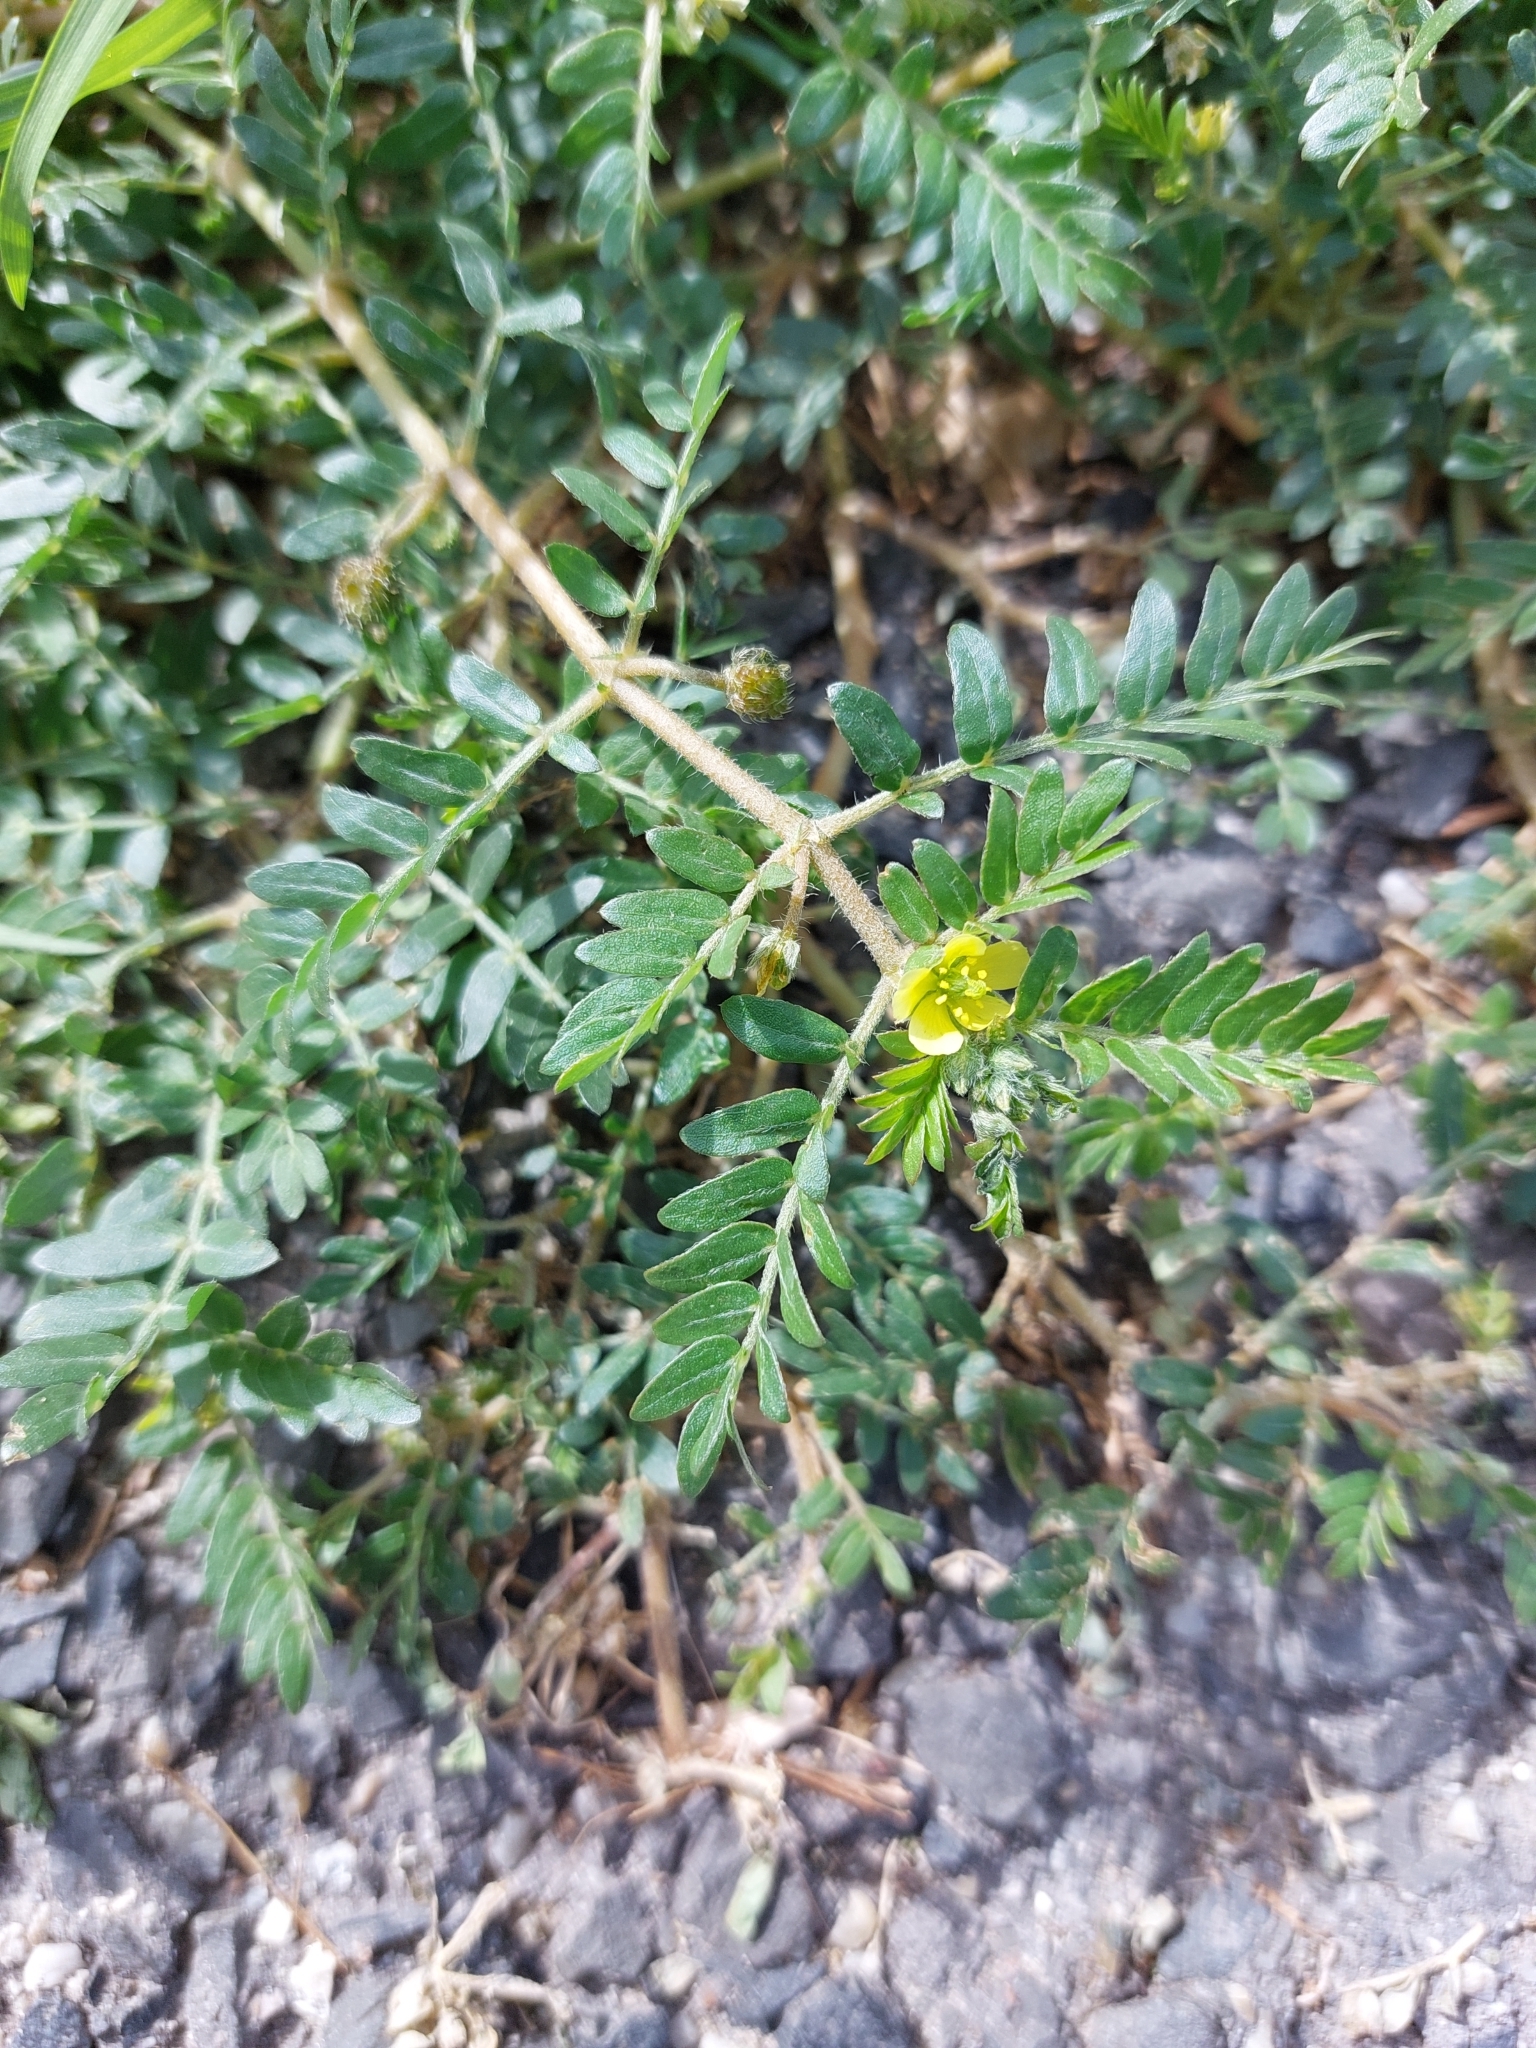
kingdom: Plantae
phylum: Tracheophyta
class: Magnoliopsida
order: Zygophyllales
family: Zygophyllaceae
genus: Tribulus
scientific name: Tribulus terrestris
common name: Puncturevine
